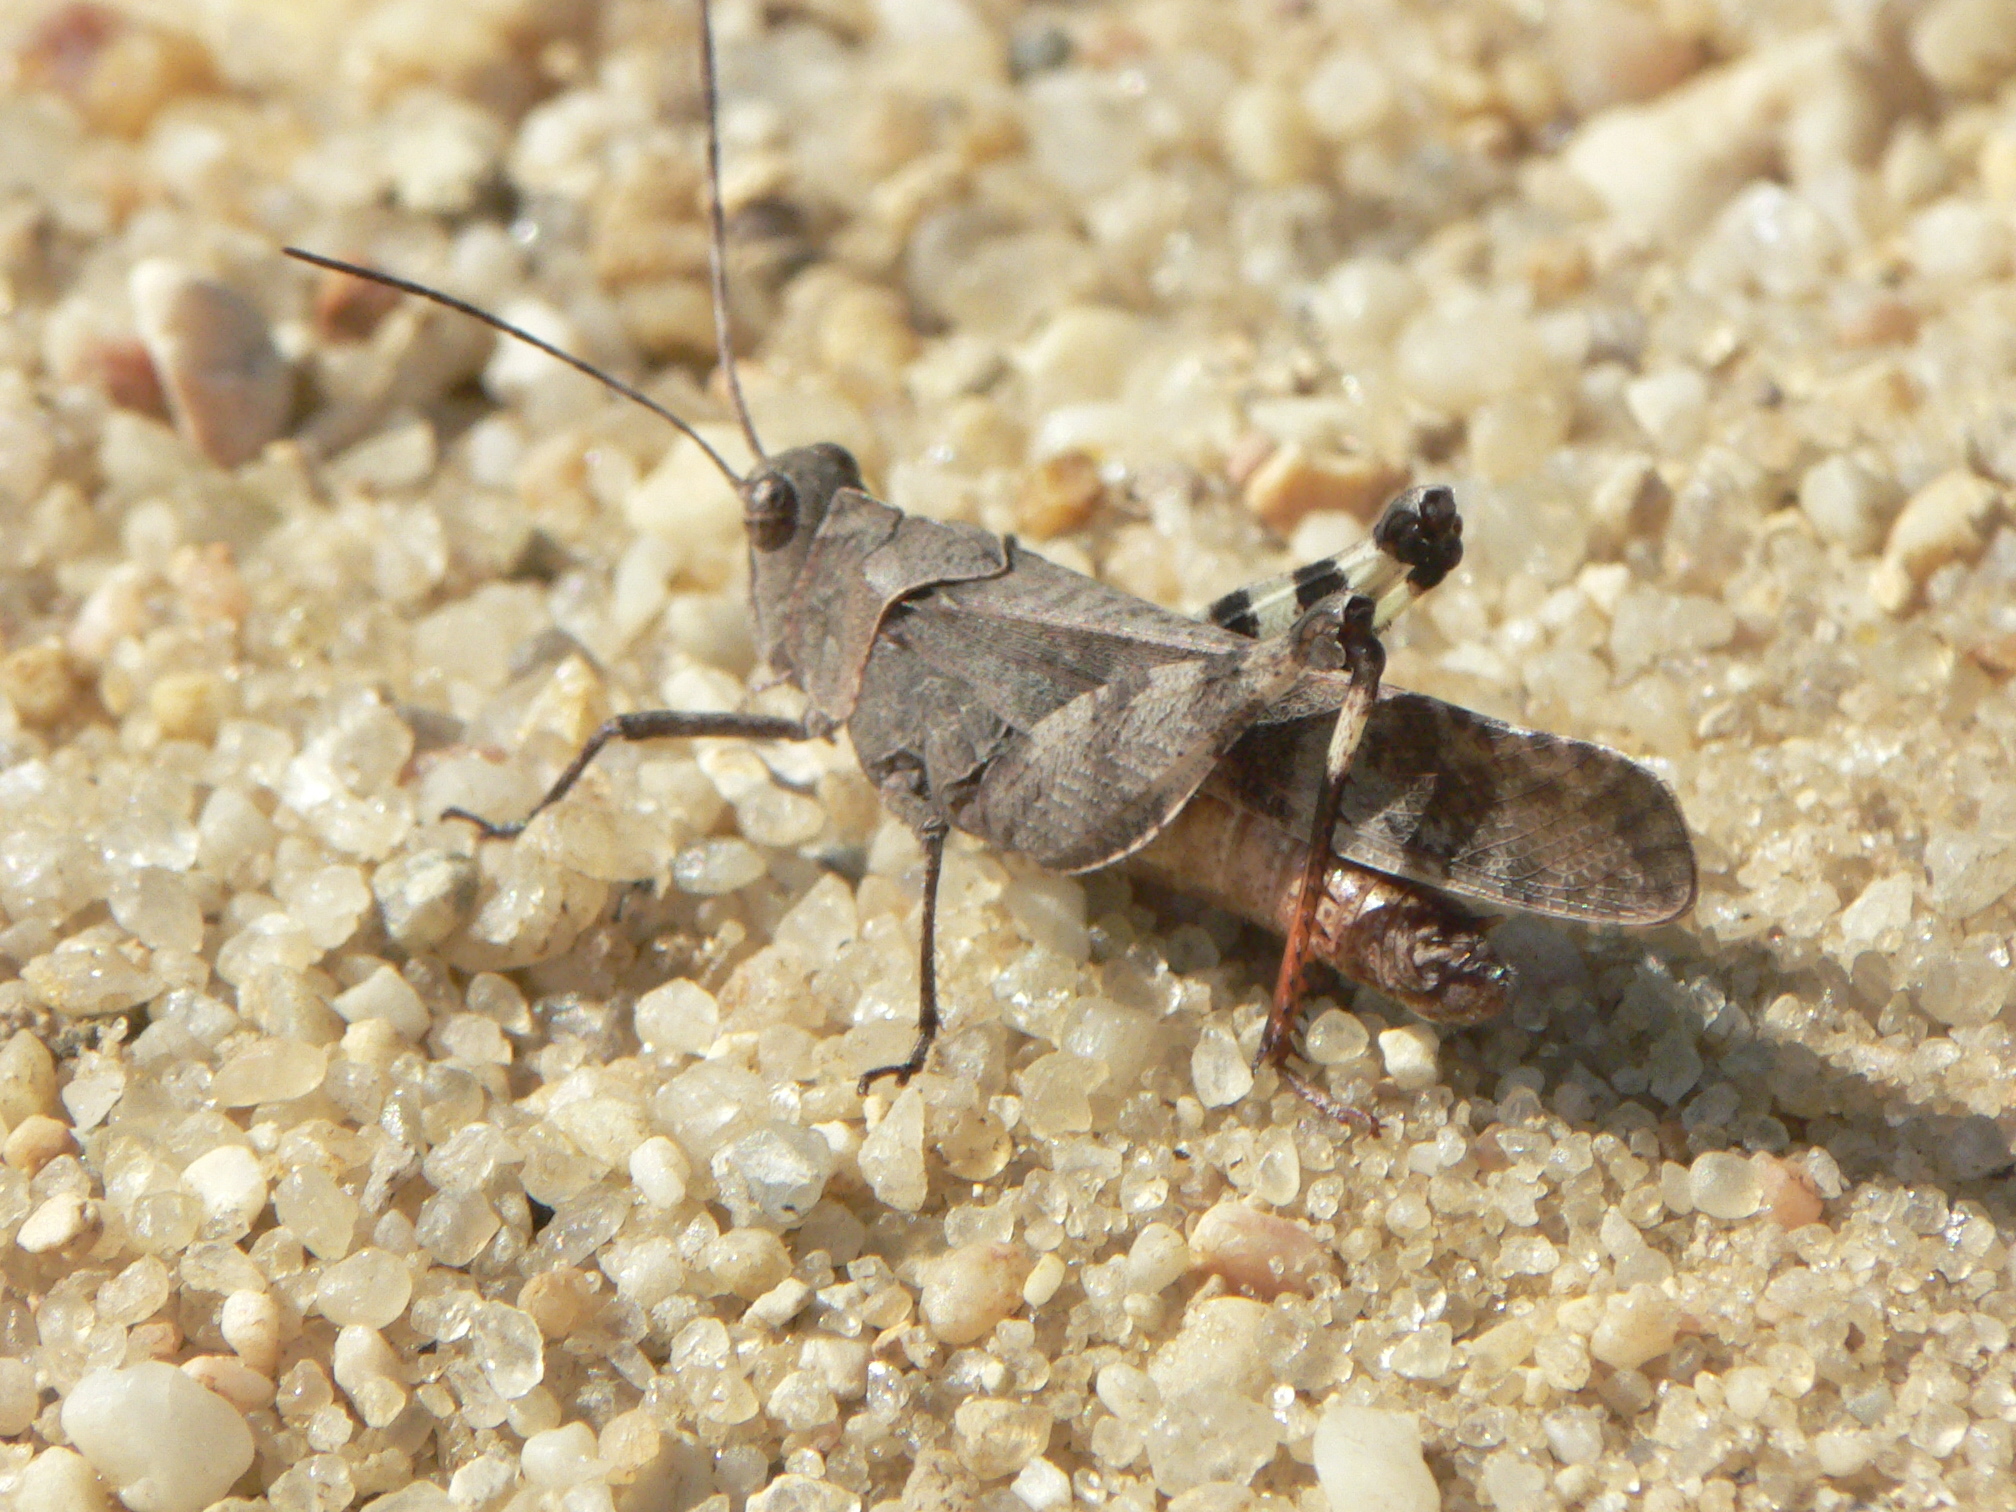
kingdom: Animalia
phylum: Arthropoda
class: Insecta
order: Orthoptera
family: Acrididae
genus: Spharagemon
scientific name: Spharagemon bolli
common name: Boll's grasshopper
